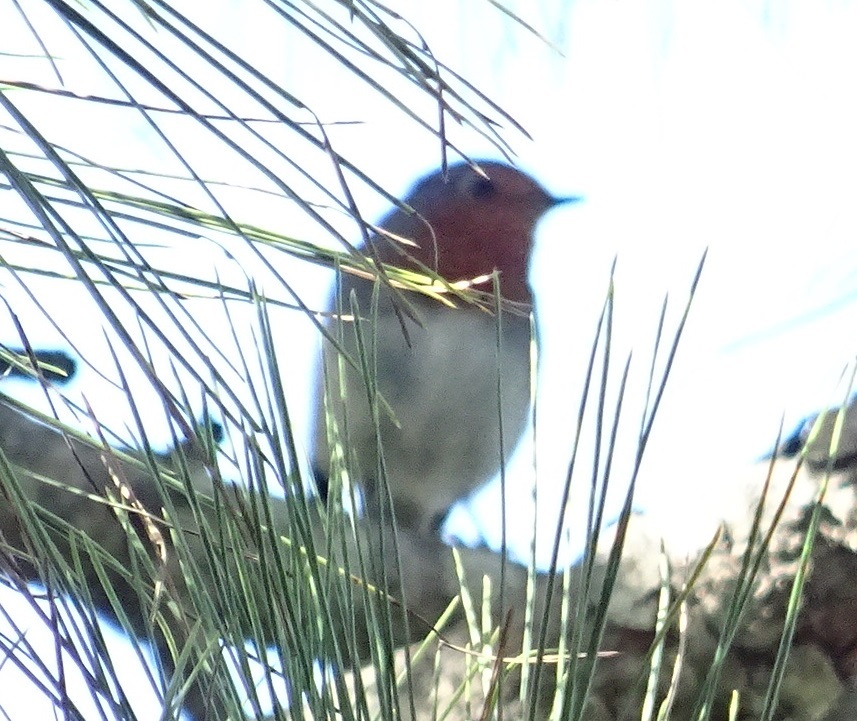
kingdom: Animalia
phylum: Chordata
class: Aves
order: Passeriformes
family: Muscicapidae
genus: Erithacus
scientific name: Erithacus rubecula
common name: European robin
